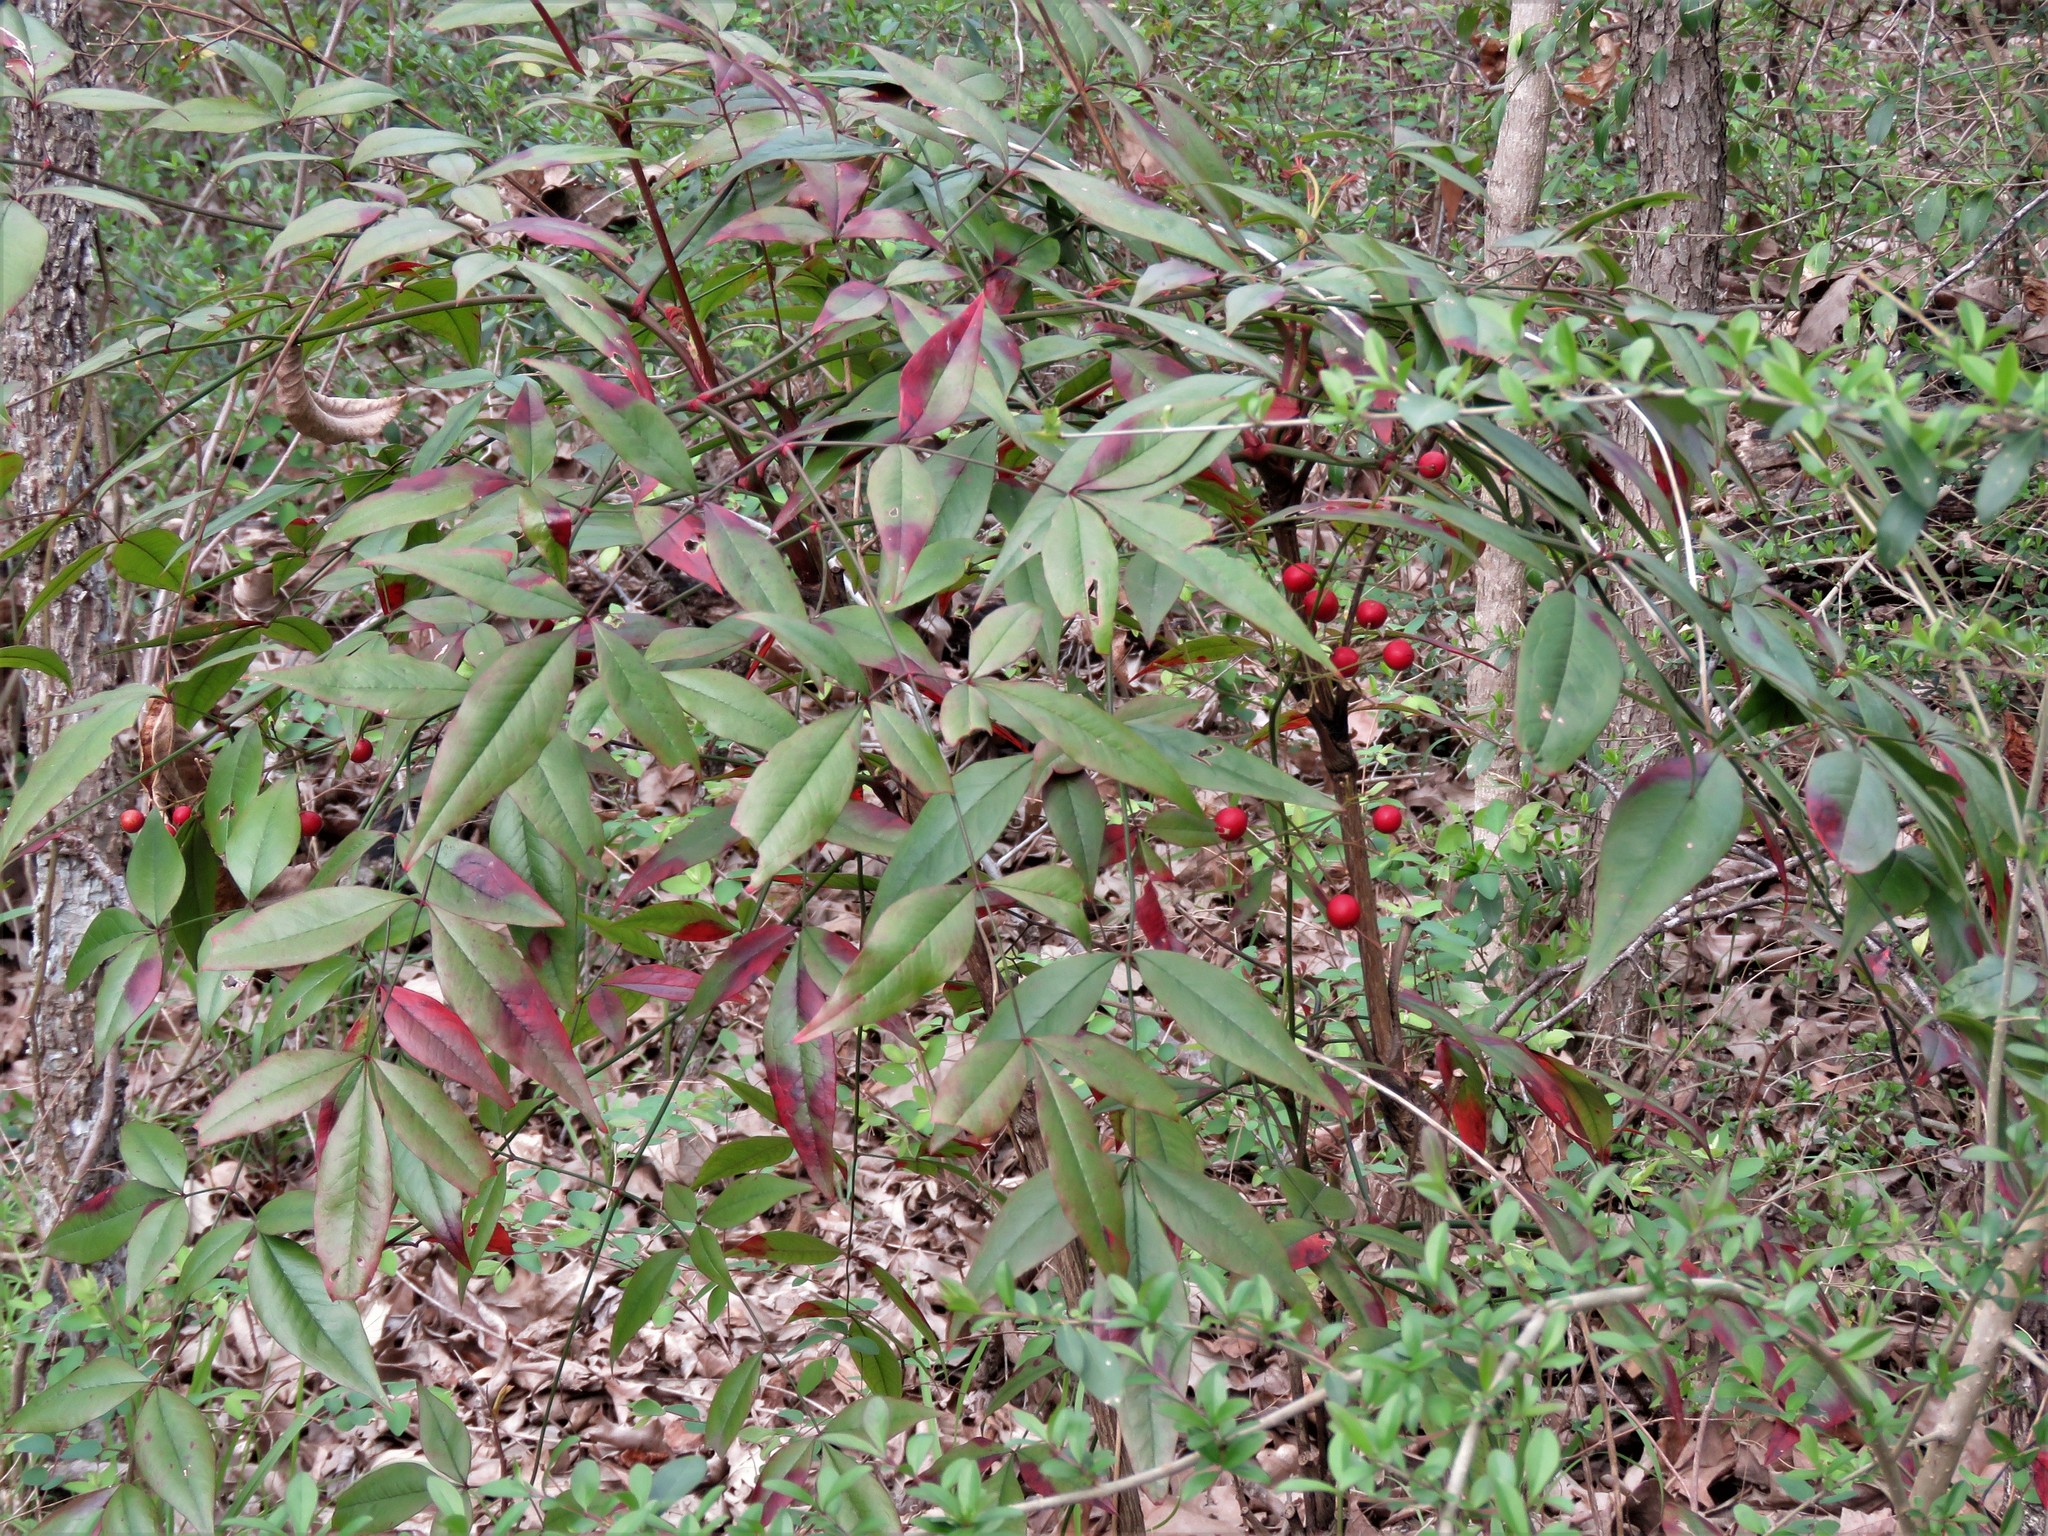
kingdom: Plantae
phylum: Tracheophyta
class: Magnoliopsida
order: Ranunculales
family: Berberidaceae
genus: Nandina
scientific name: Nandina domestica
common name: Sacred bamboo
